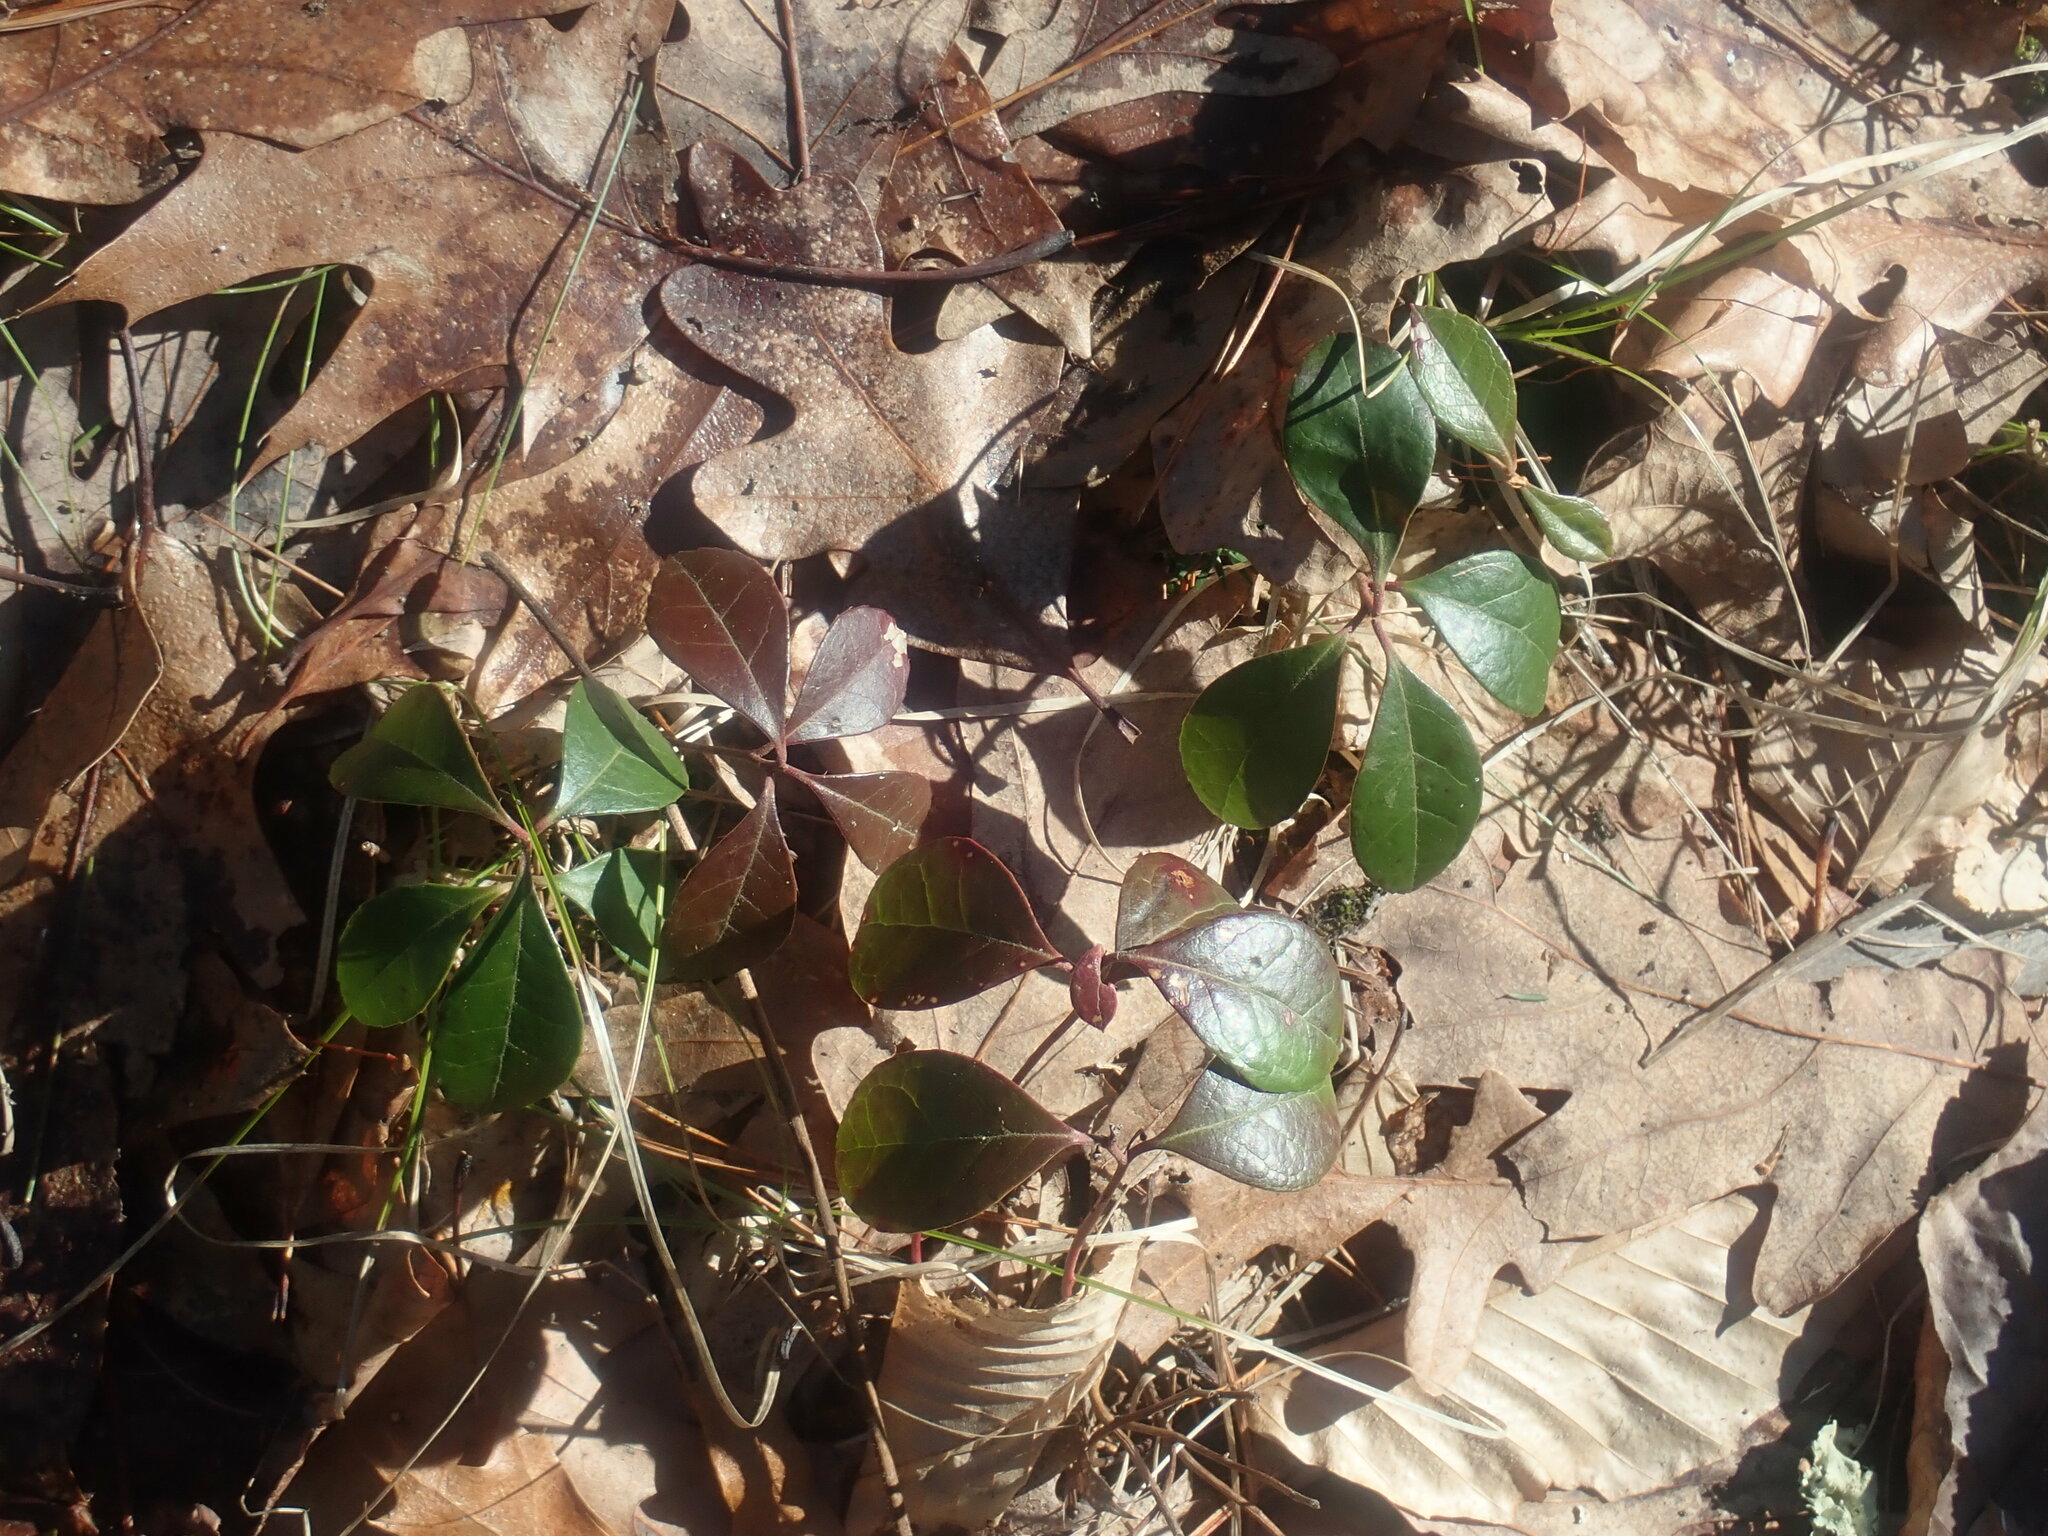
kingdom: Plantae
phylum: Tracheophyta
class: Magnoliopsida
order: Ericales
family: Ericaceae
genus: Gaultheria
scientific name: Gaultheria procumbens
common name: Checkerberry
